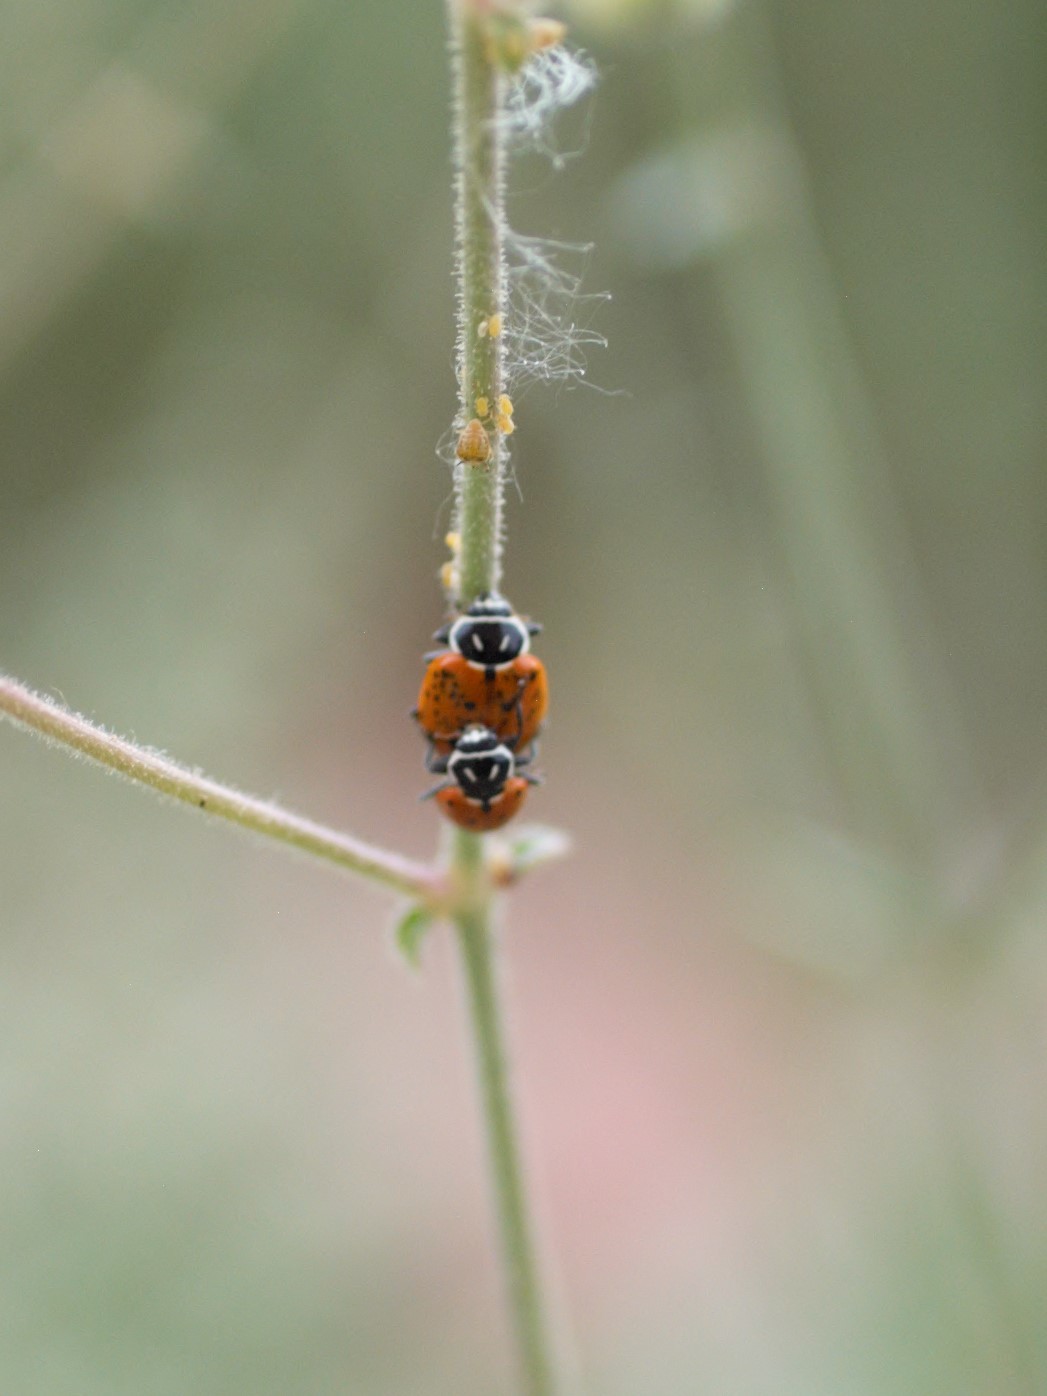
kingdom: Animalia
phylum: Arthropoda
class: Insecta
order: Coleoptera
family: Coccinellidae
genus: Hippodamia
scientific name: Hippodamia convergens
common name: Convergent lady beetle
